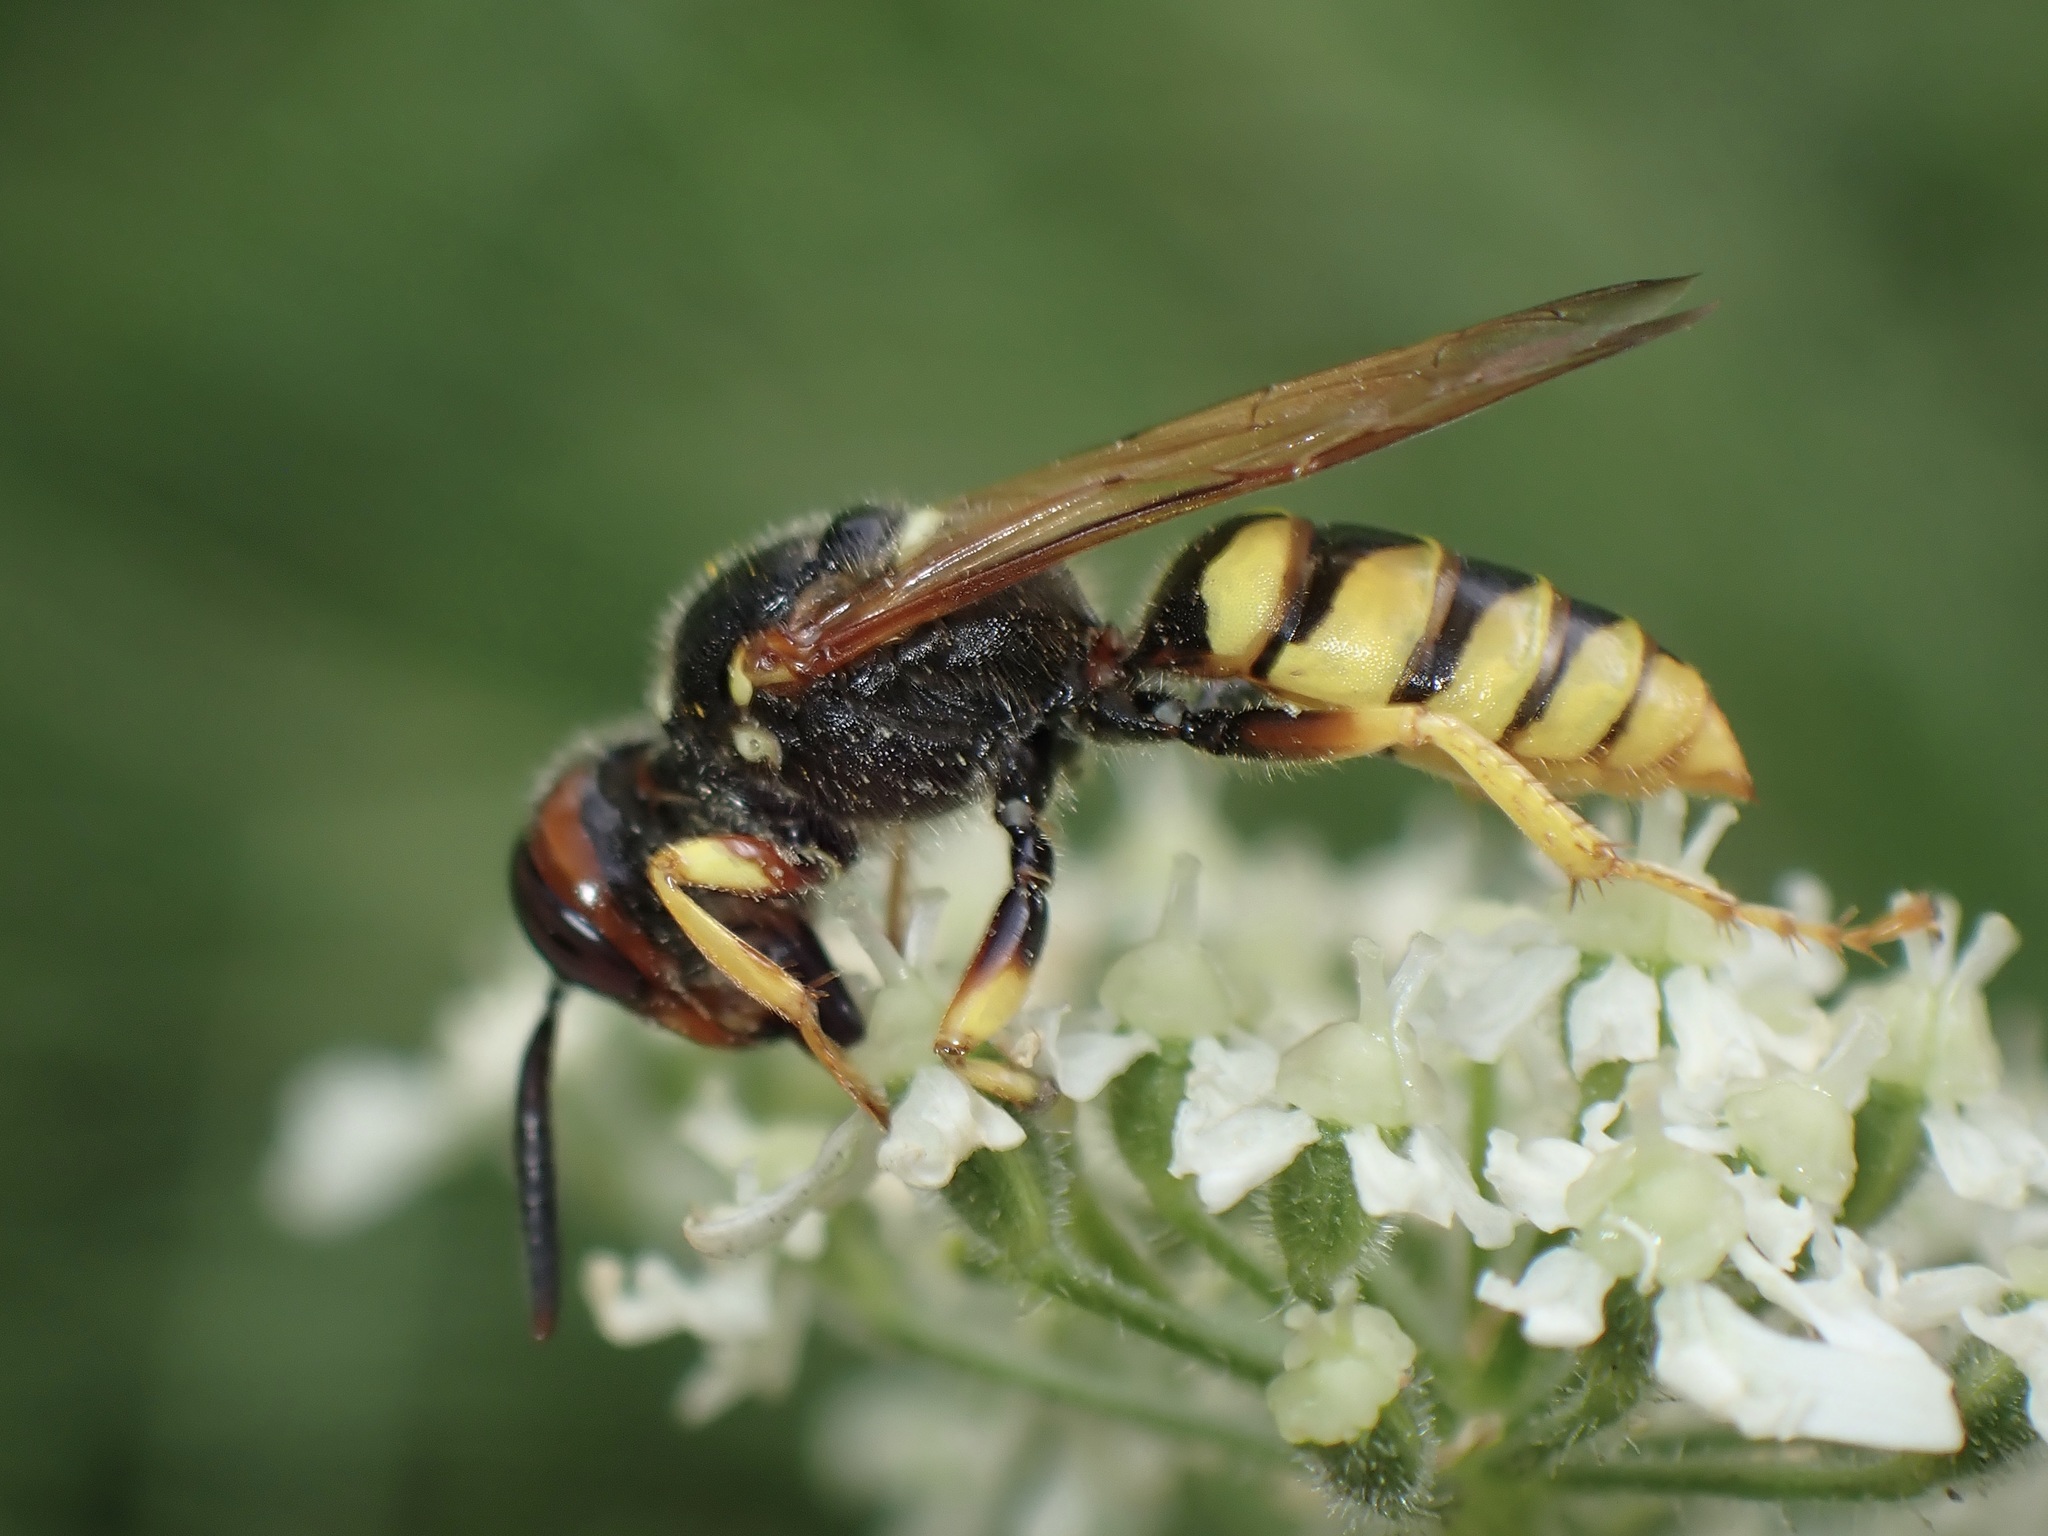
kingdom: Animalia
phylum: Arthropoda
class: Insecta
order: Hymenoptera
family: Crabronidae
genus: Philanthus
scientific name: Philanthus triangulum
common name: Bee wolf
